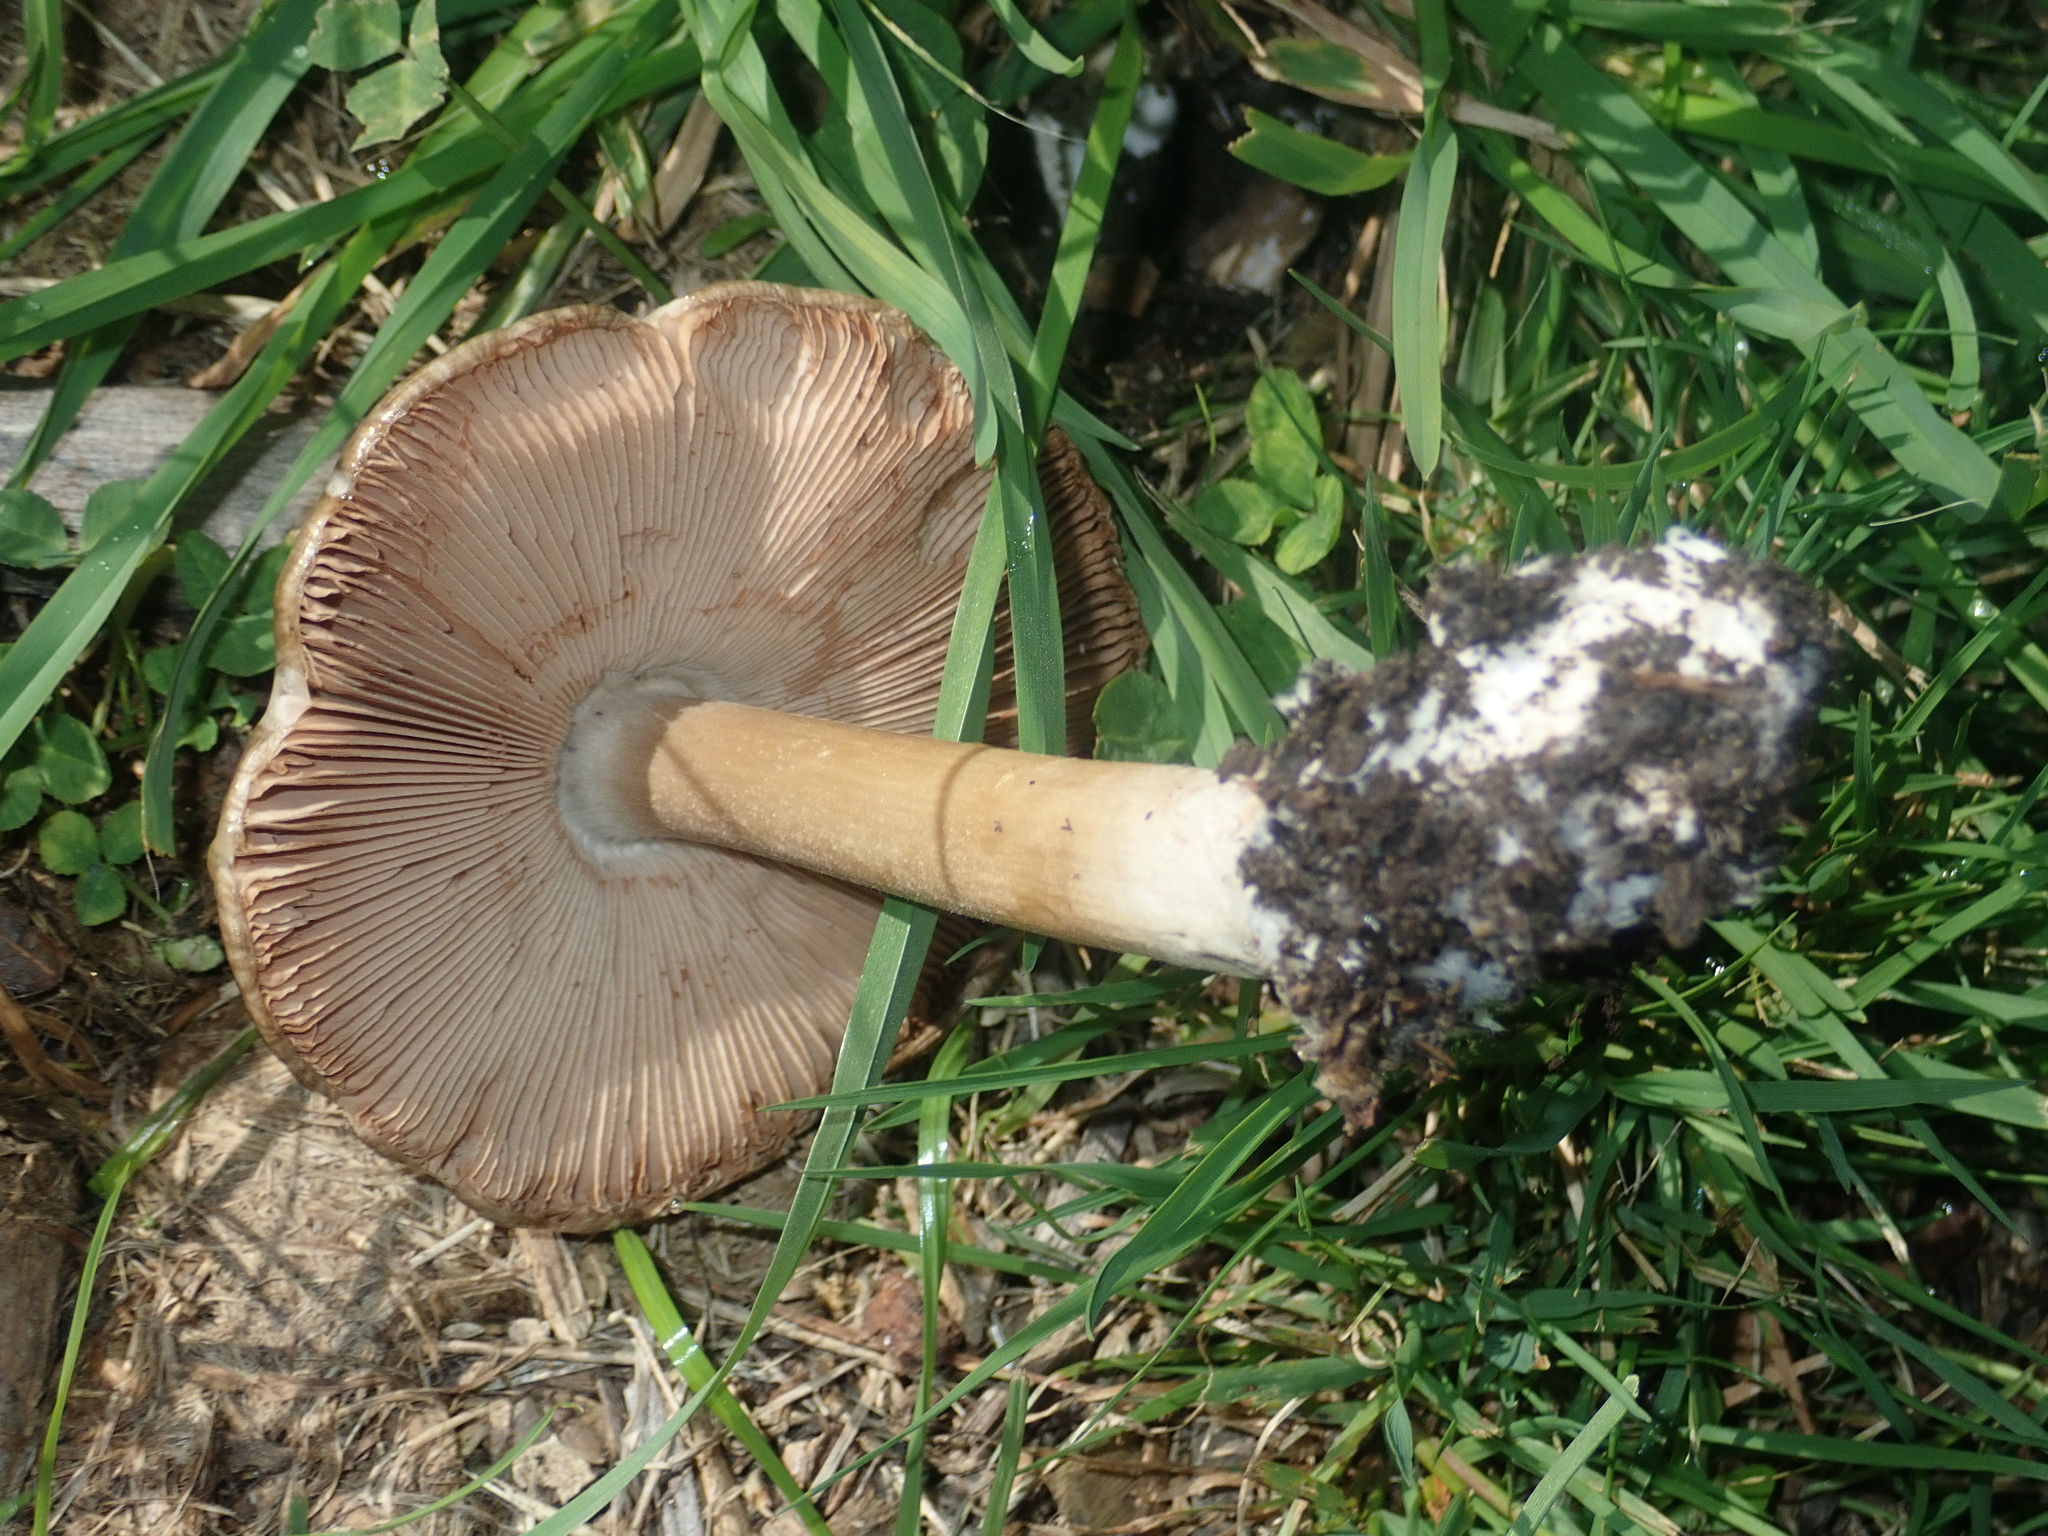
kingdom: Fungi
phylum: Basidiomycota
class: Agaricomycetes
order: Agaricales
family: Pluteaceae
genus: Volvopluteus
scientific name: Volvopluteus gloiocephalus
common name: Stubble rosegill
